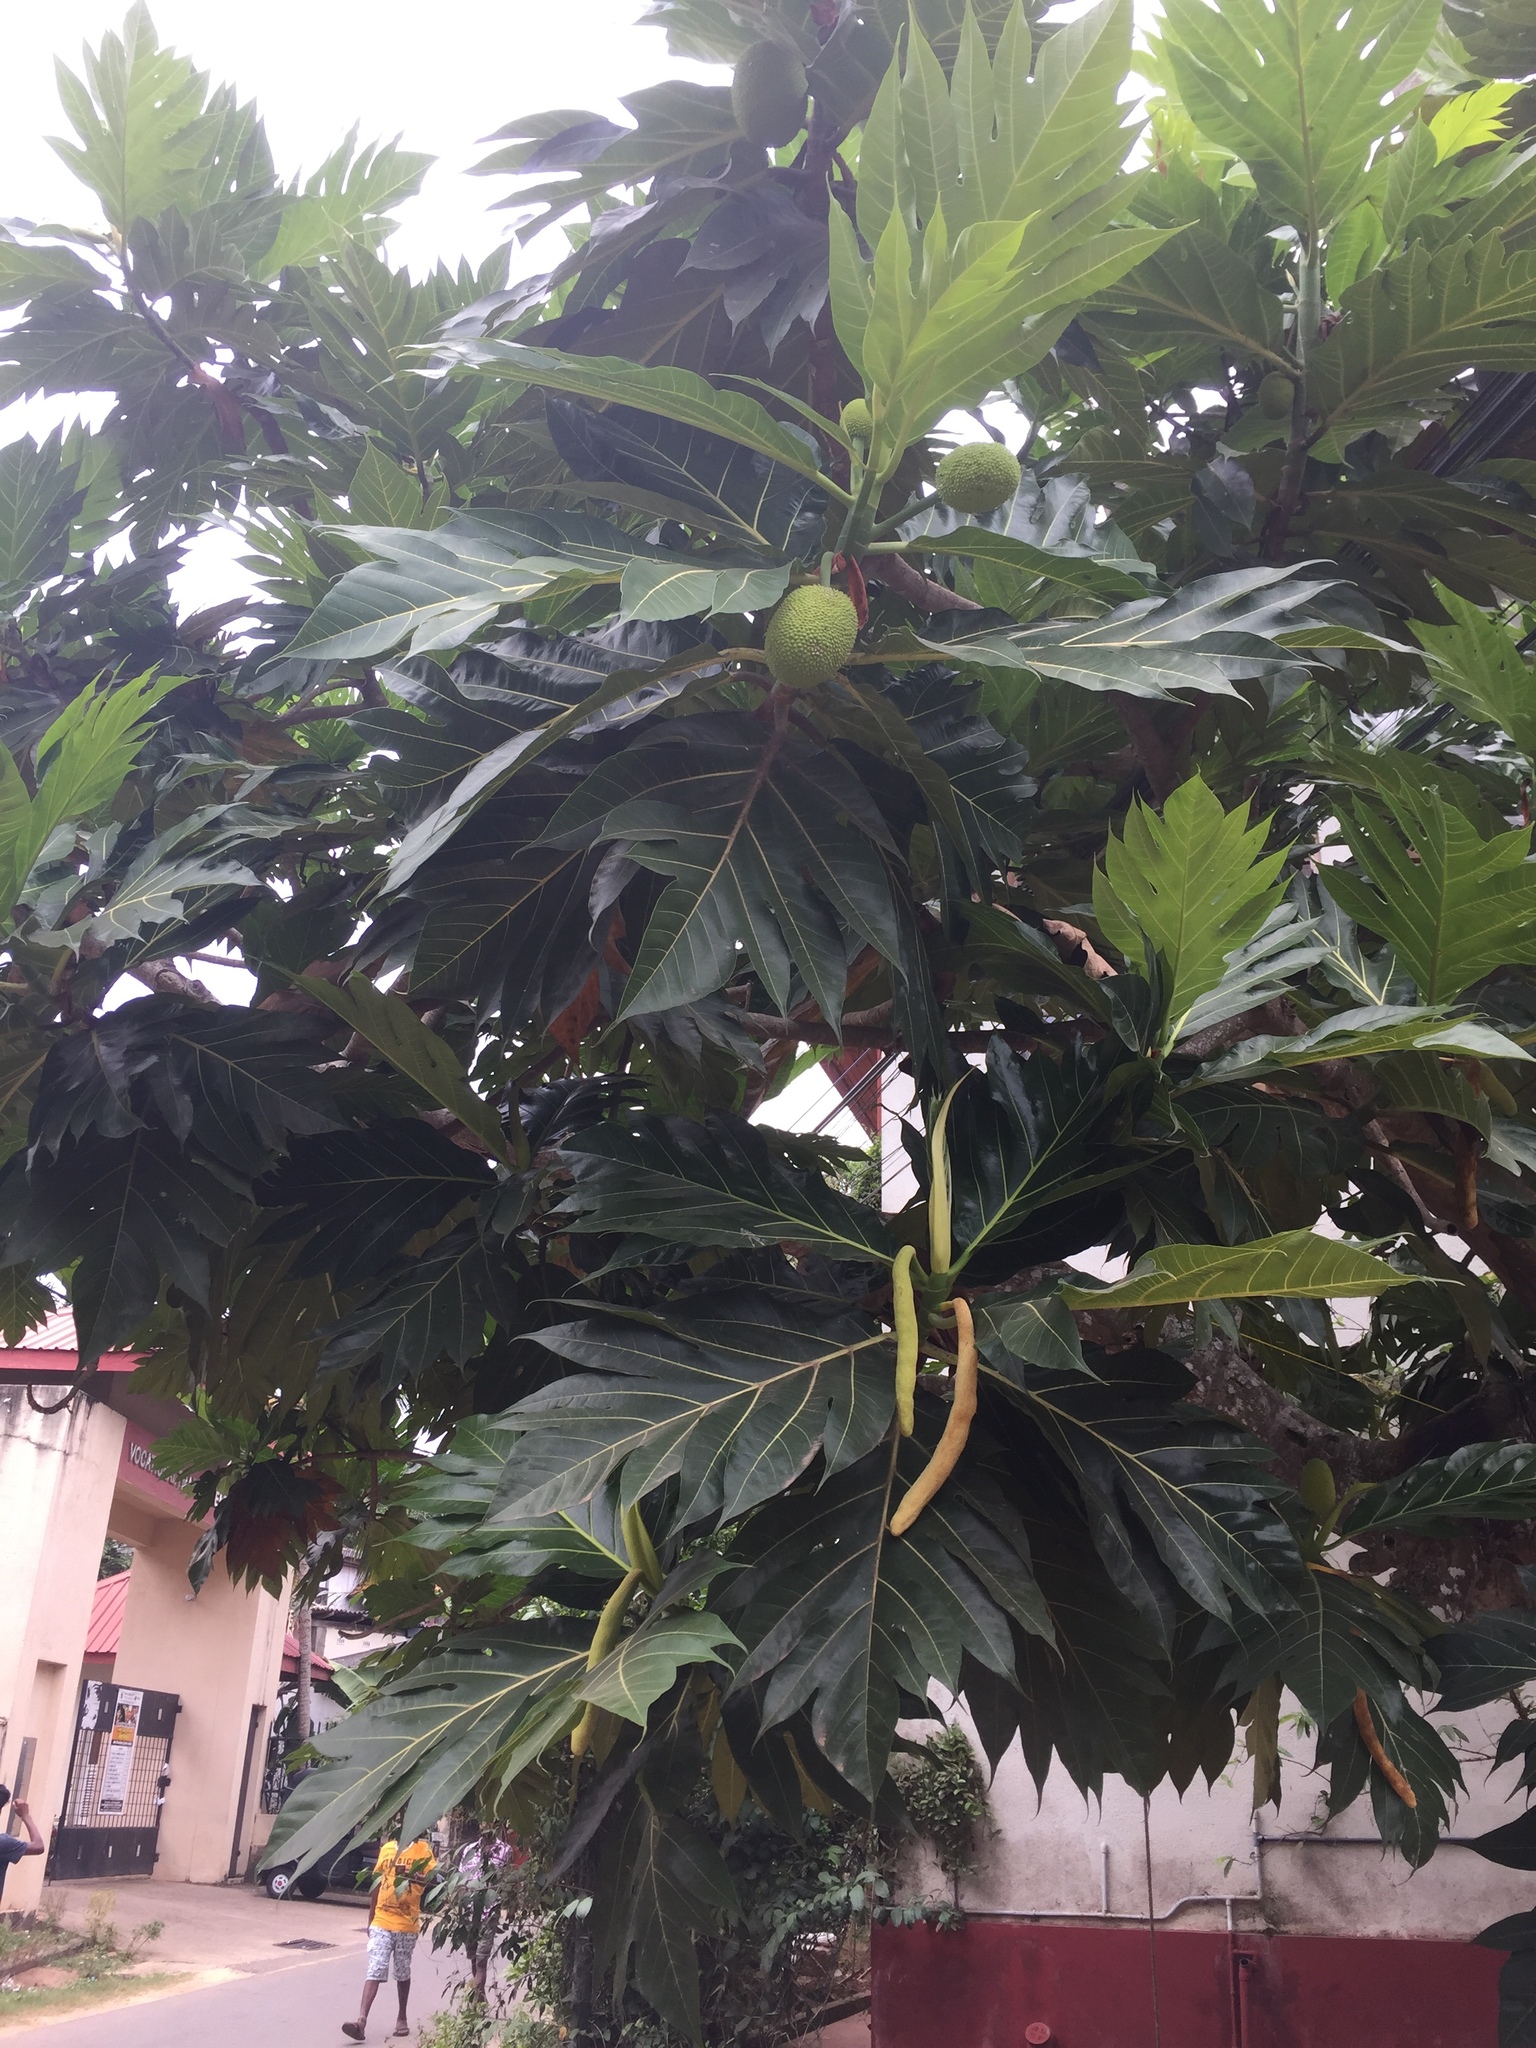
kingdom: Plantae
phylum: Tracheophyta
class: Magnoliopsida
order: Rosales
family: Moraceae
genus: Artocarpus
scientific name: Artocarpus altilis
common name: Breadfruit
